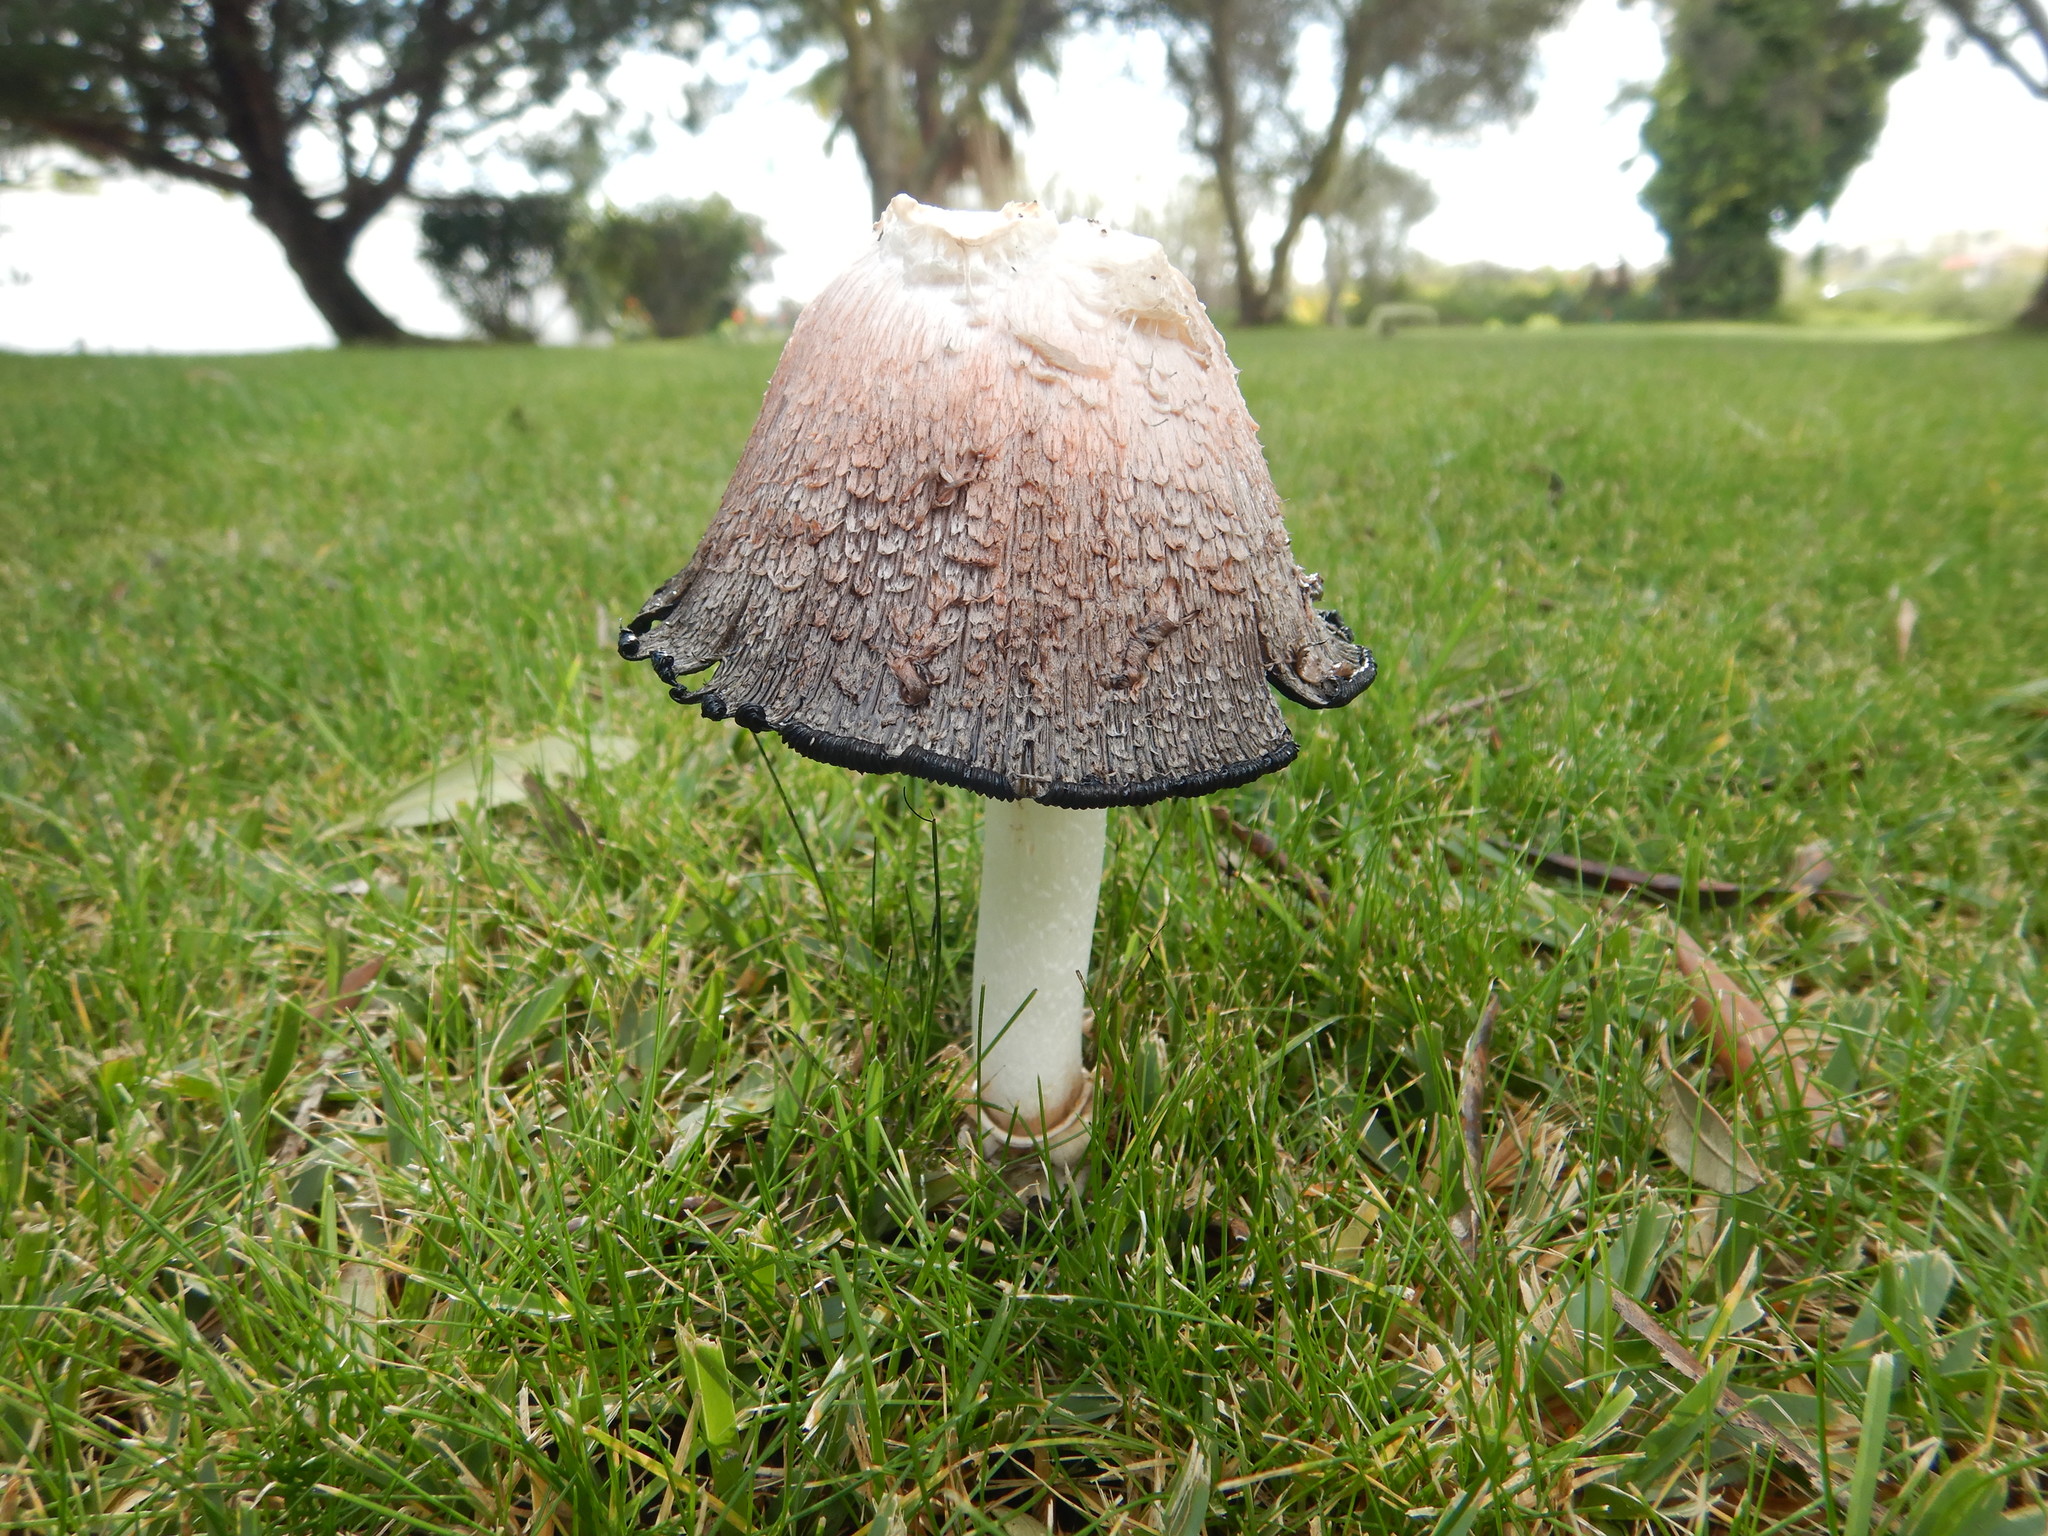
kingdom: Fungi
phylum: Basidiomycota
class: Agaricomycetes
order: Agaricales
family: Agaricaceae
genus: Coprinus
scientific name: Coprinus comatus
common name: Lawyer's wig
